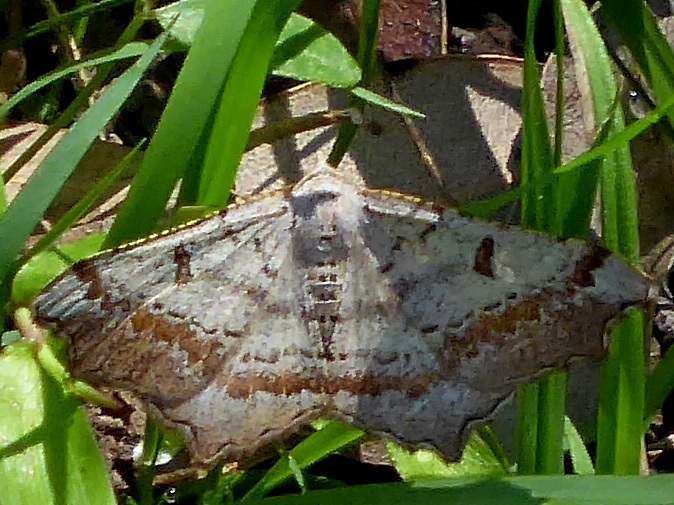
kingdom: Animalia
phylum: Arthropoda
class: Insecta
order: Lepidoptera
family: Geometridae
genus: Dissomorphia
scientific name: Dissomorphia australiaria
